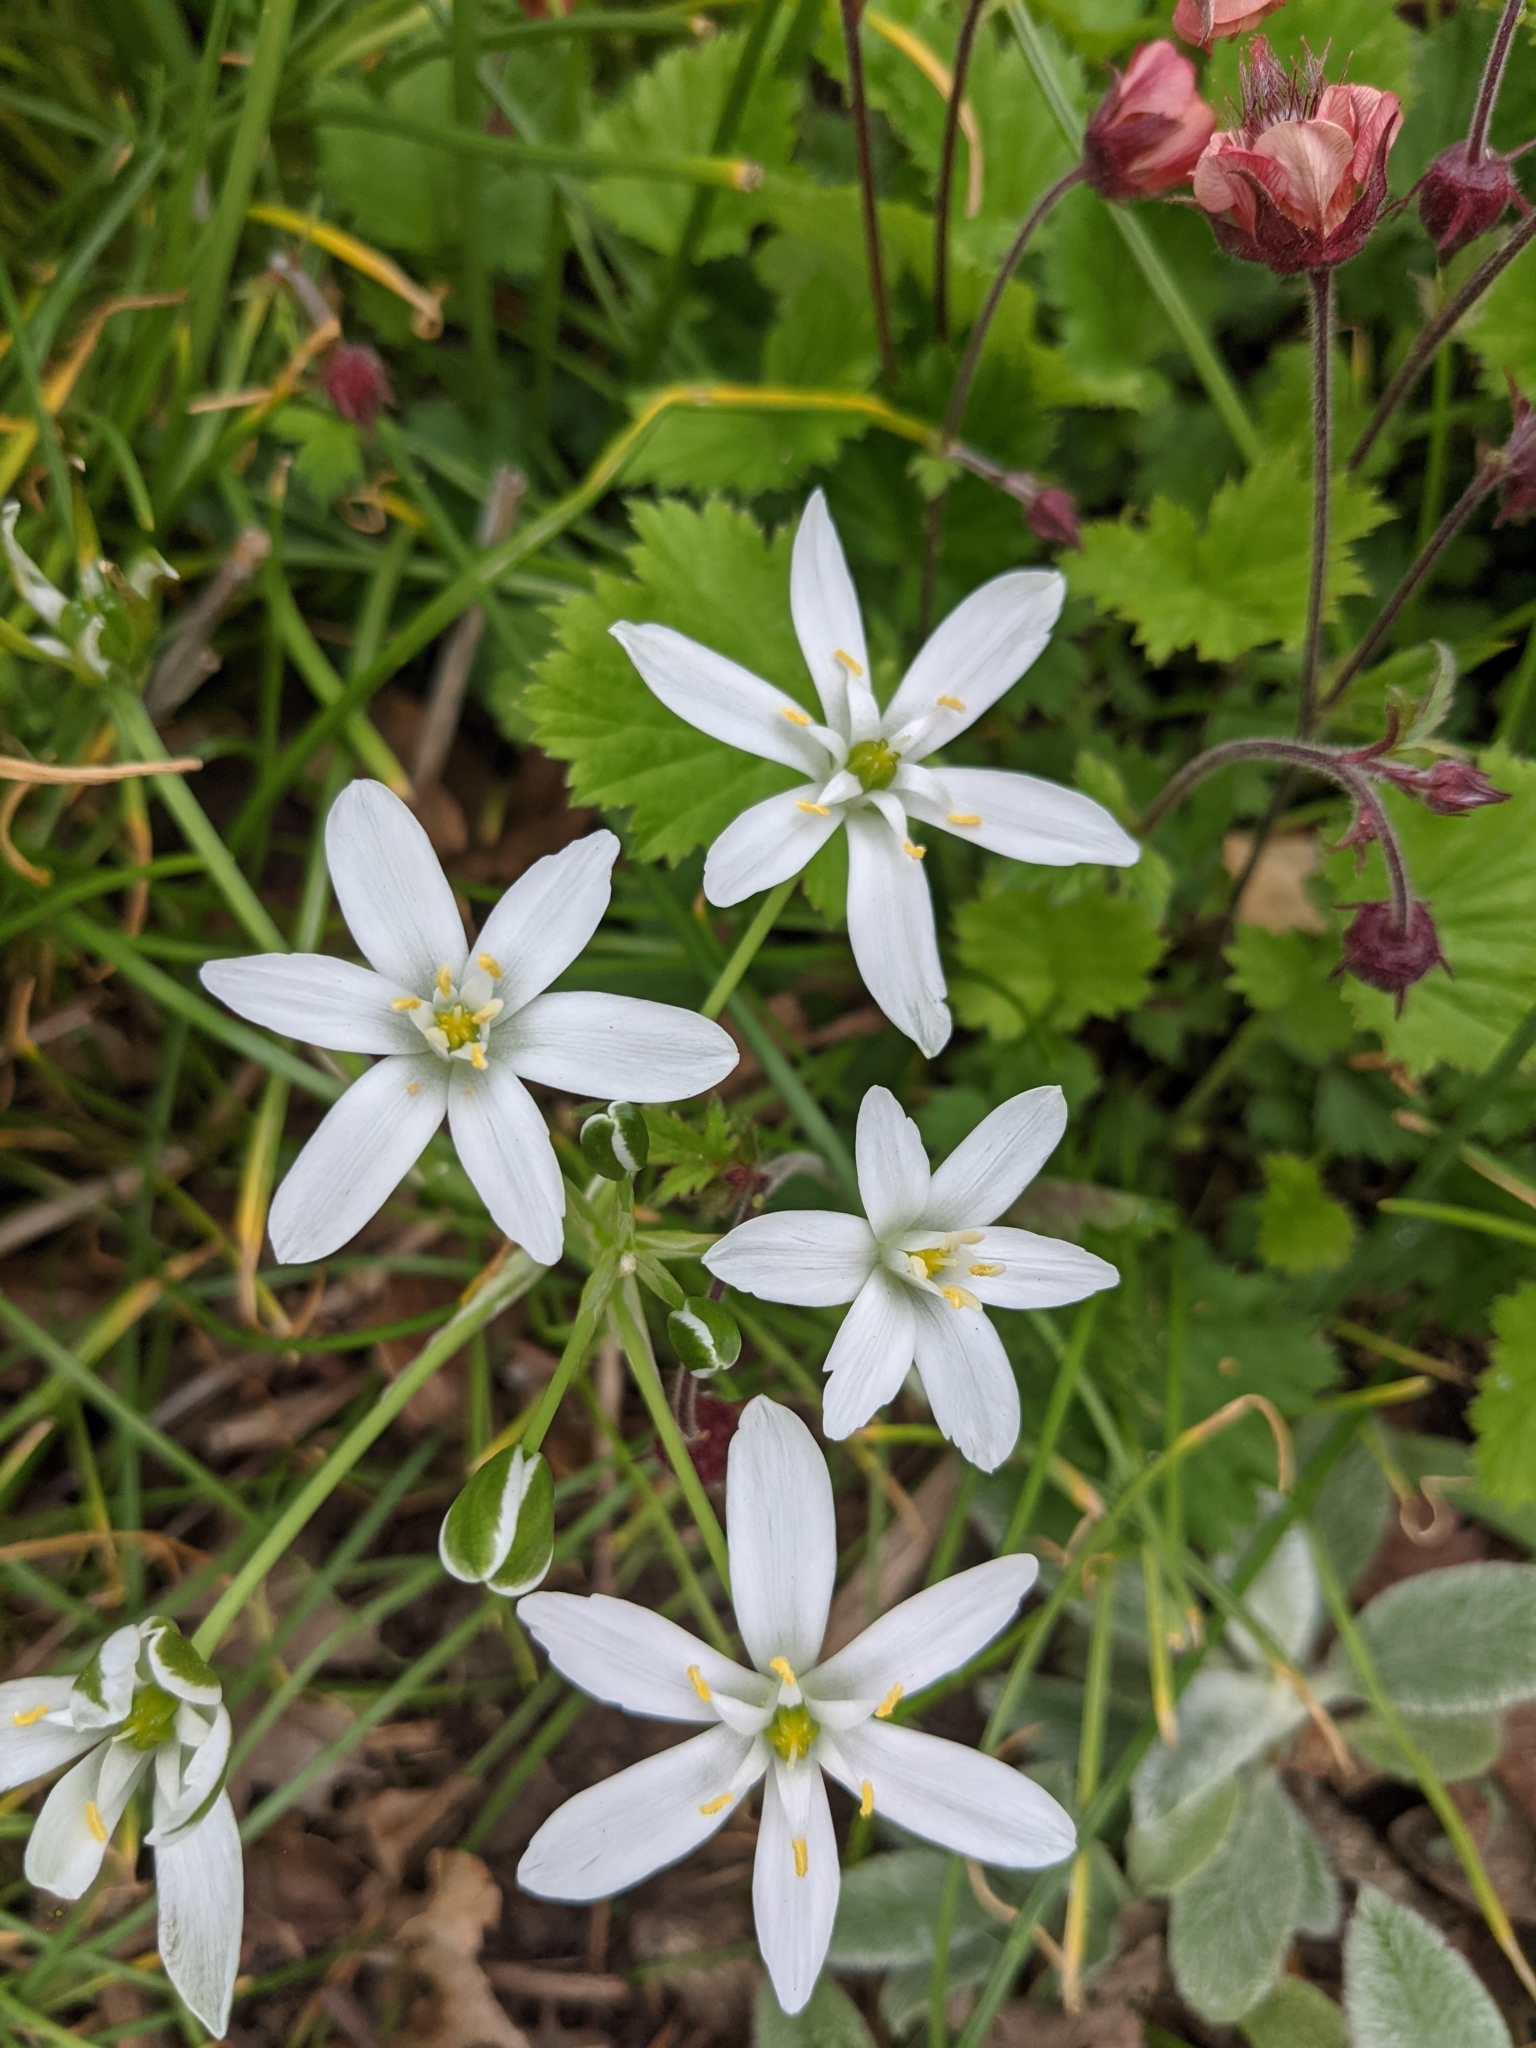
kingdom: Plantae
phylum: Tracheophyta
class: Liliopsida
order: Asparagales
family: Asparagaceae
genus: Ornithogalum
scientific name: Ornithogalum umbellatum
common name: Garden star-of-bethlehem
